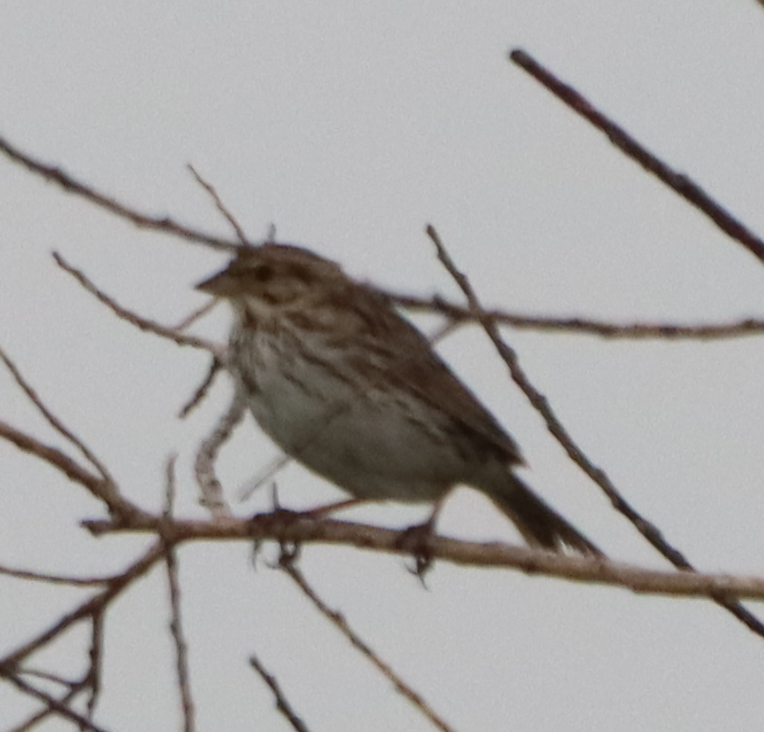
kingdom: Animalia
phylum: Chordata
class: Aves
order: Passeriformes
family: Passerellidae
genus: Passerculus
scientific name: Passerculus sandwichensis
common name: Savannah sparrow
